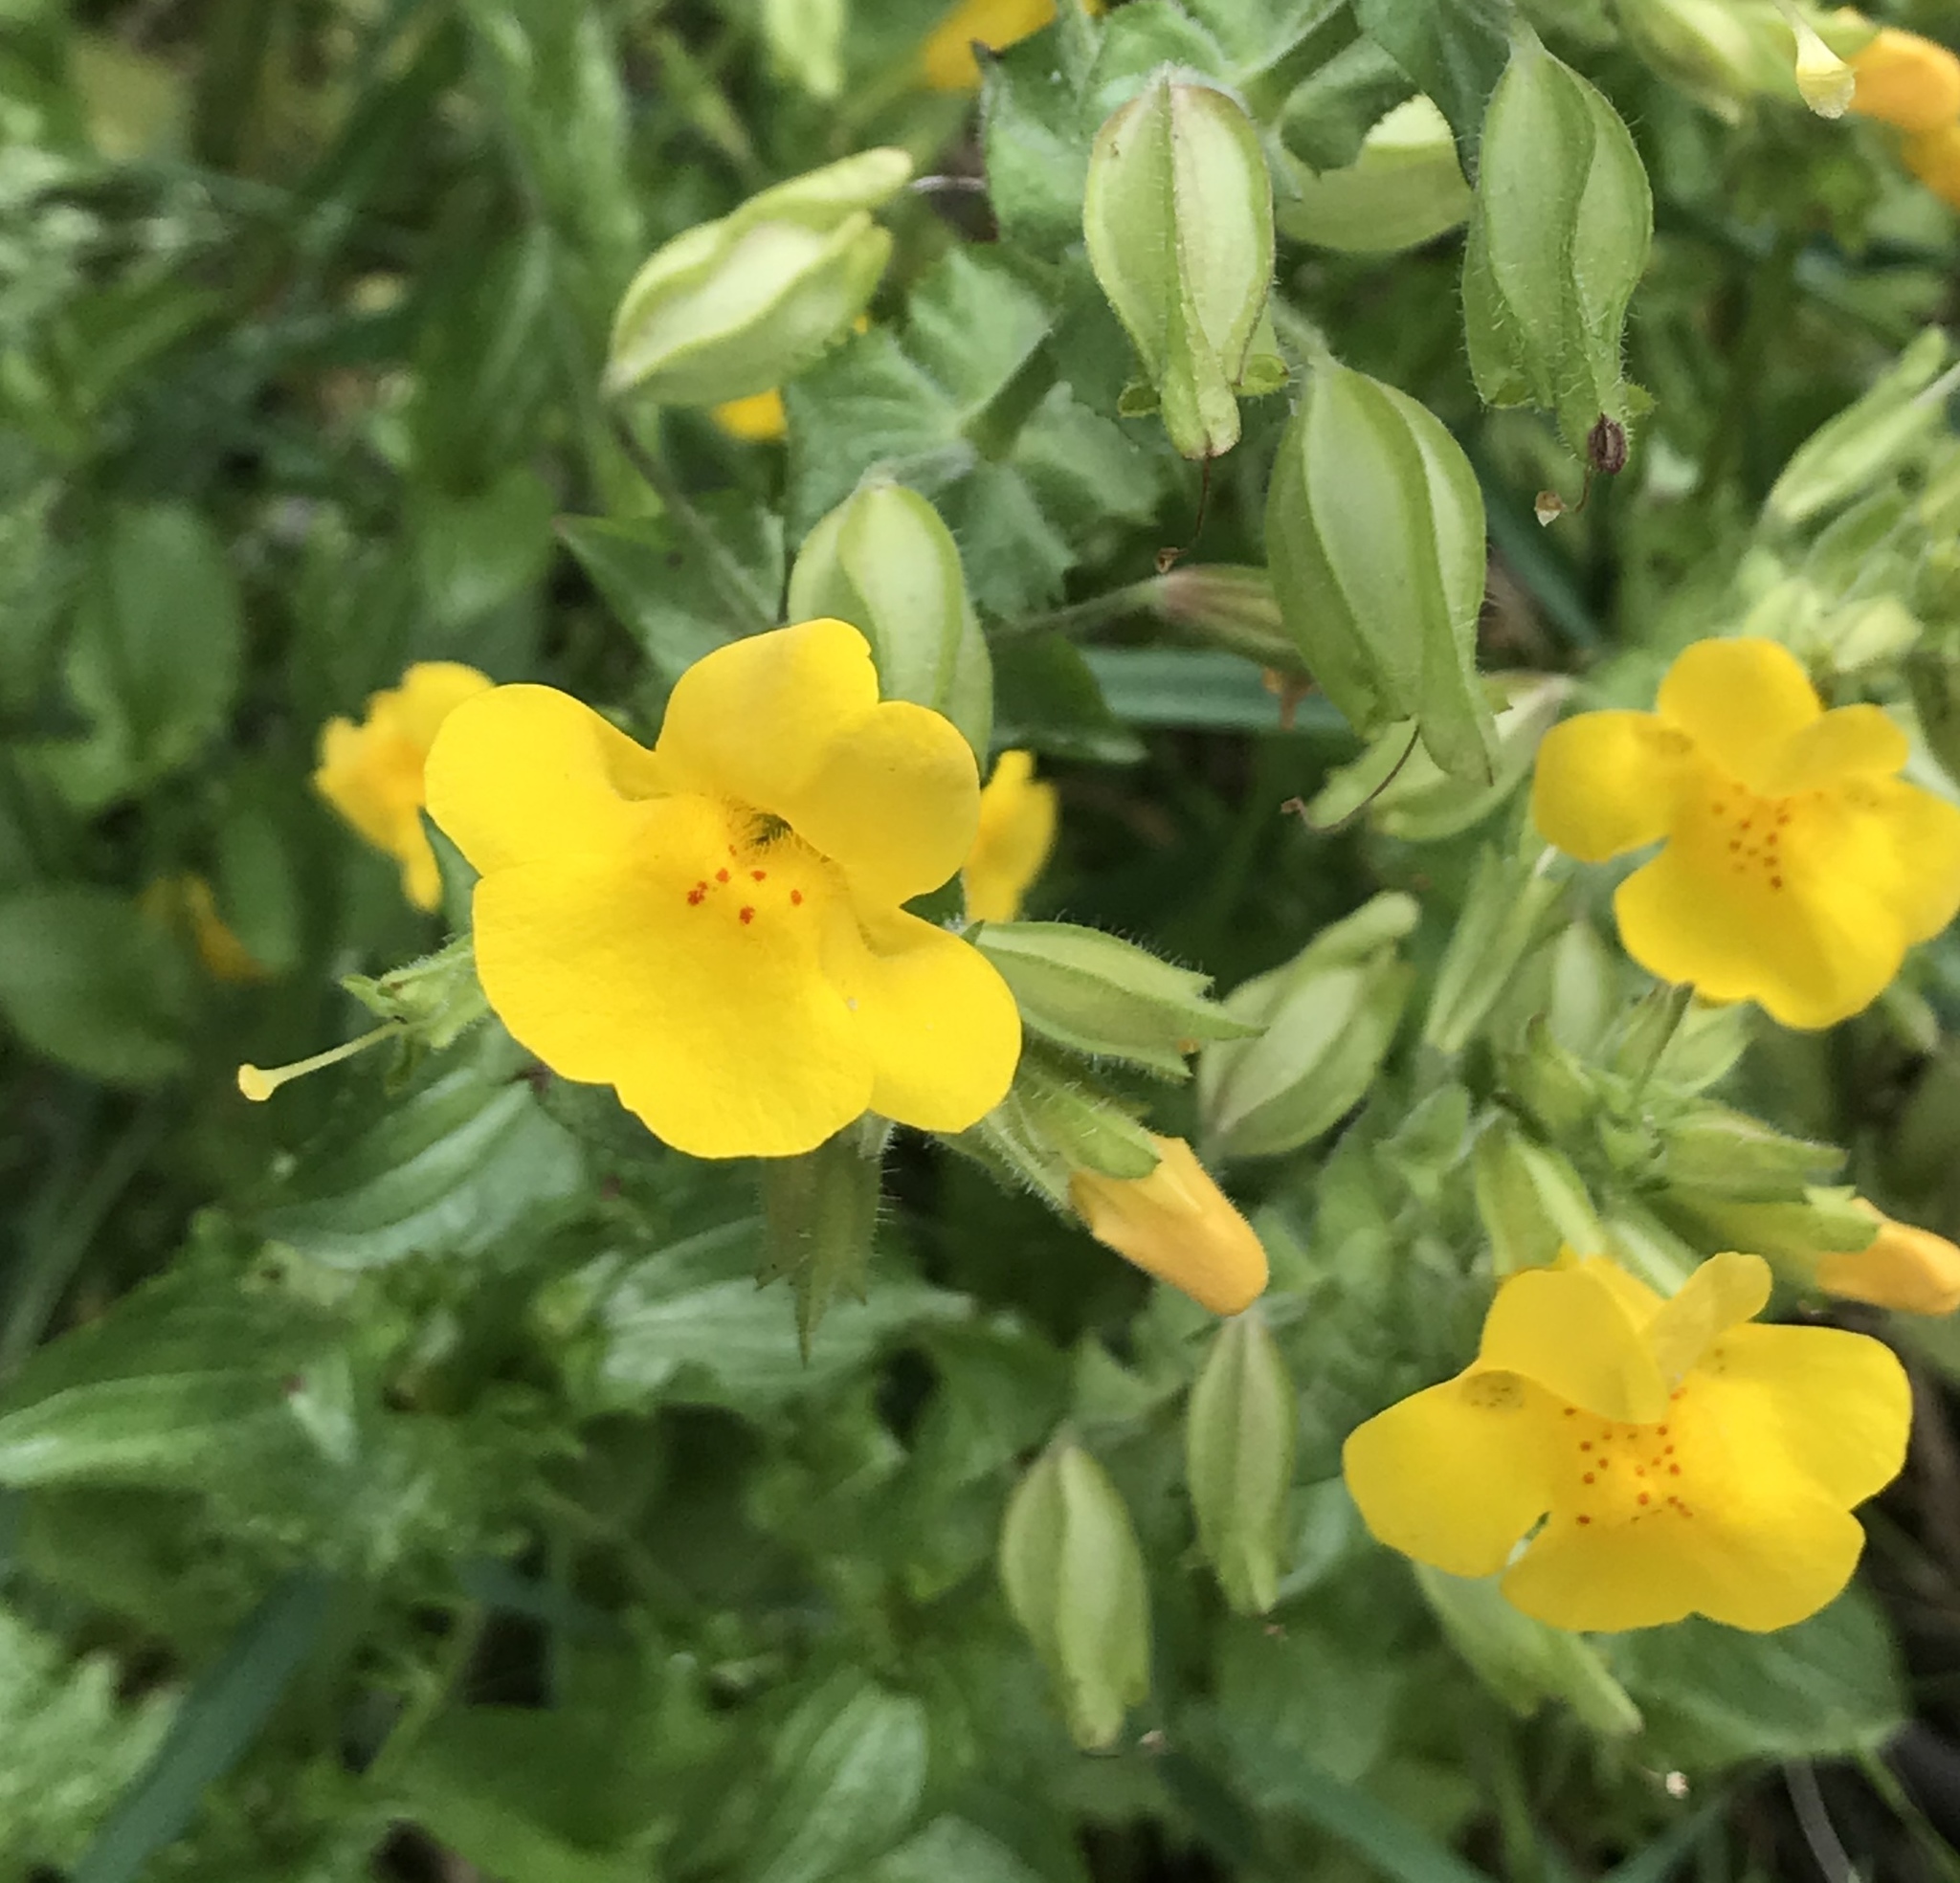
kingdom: Plantae
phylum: Tracheophyta
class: Magnoliopsida
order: Lamiales
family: Phrymaceae
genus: Erythranthe
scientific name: Erythranthe guttata
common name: Monkeyflower
